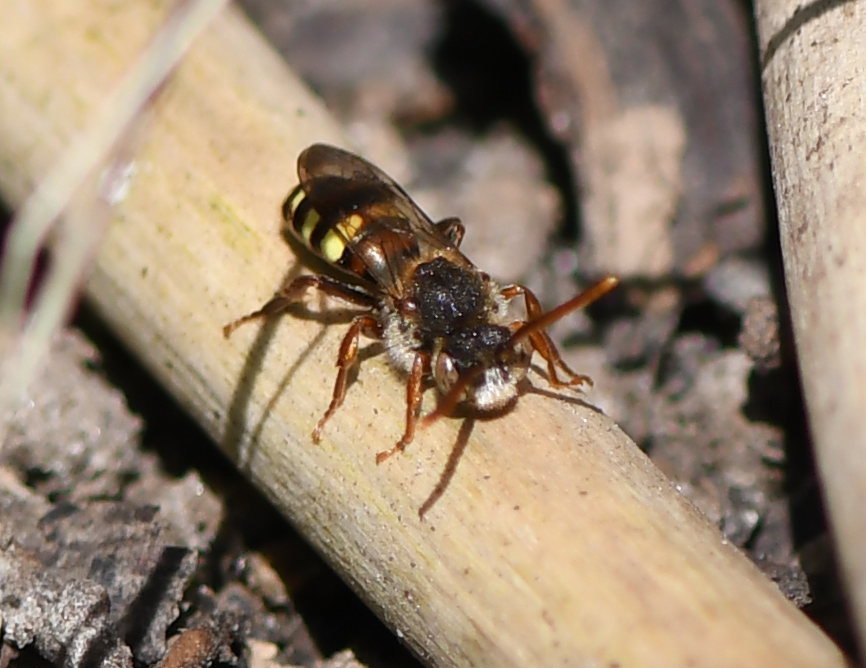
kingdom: Animalia
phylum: Arthropoda
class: Insecta
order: Hymenoptera
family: Apidae
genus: Nomada
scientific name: Nomada leucophthalma
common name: Early nomad bee
